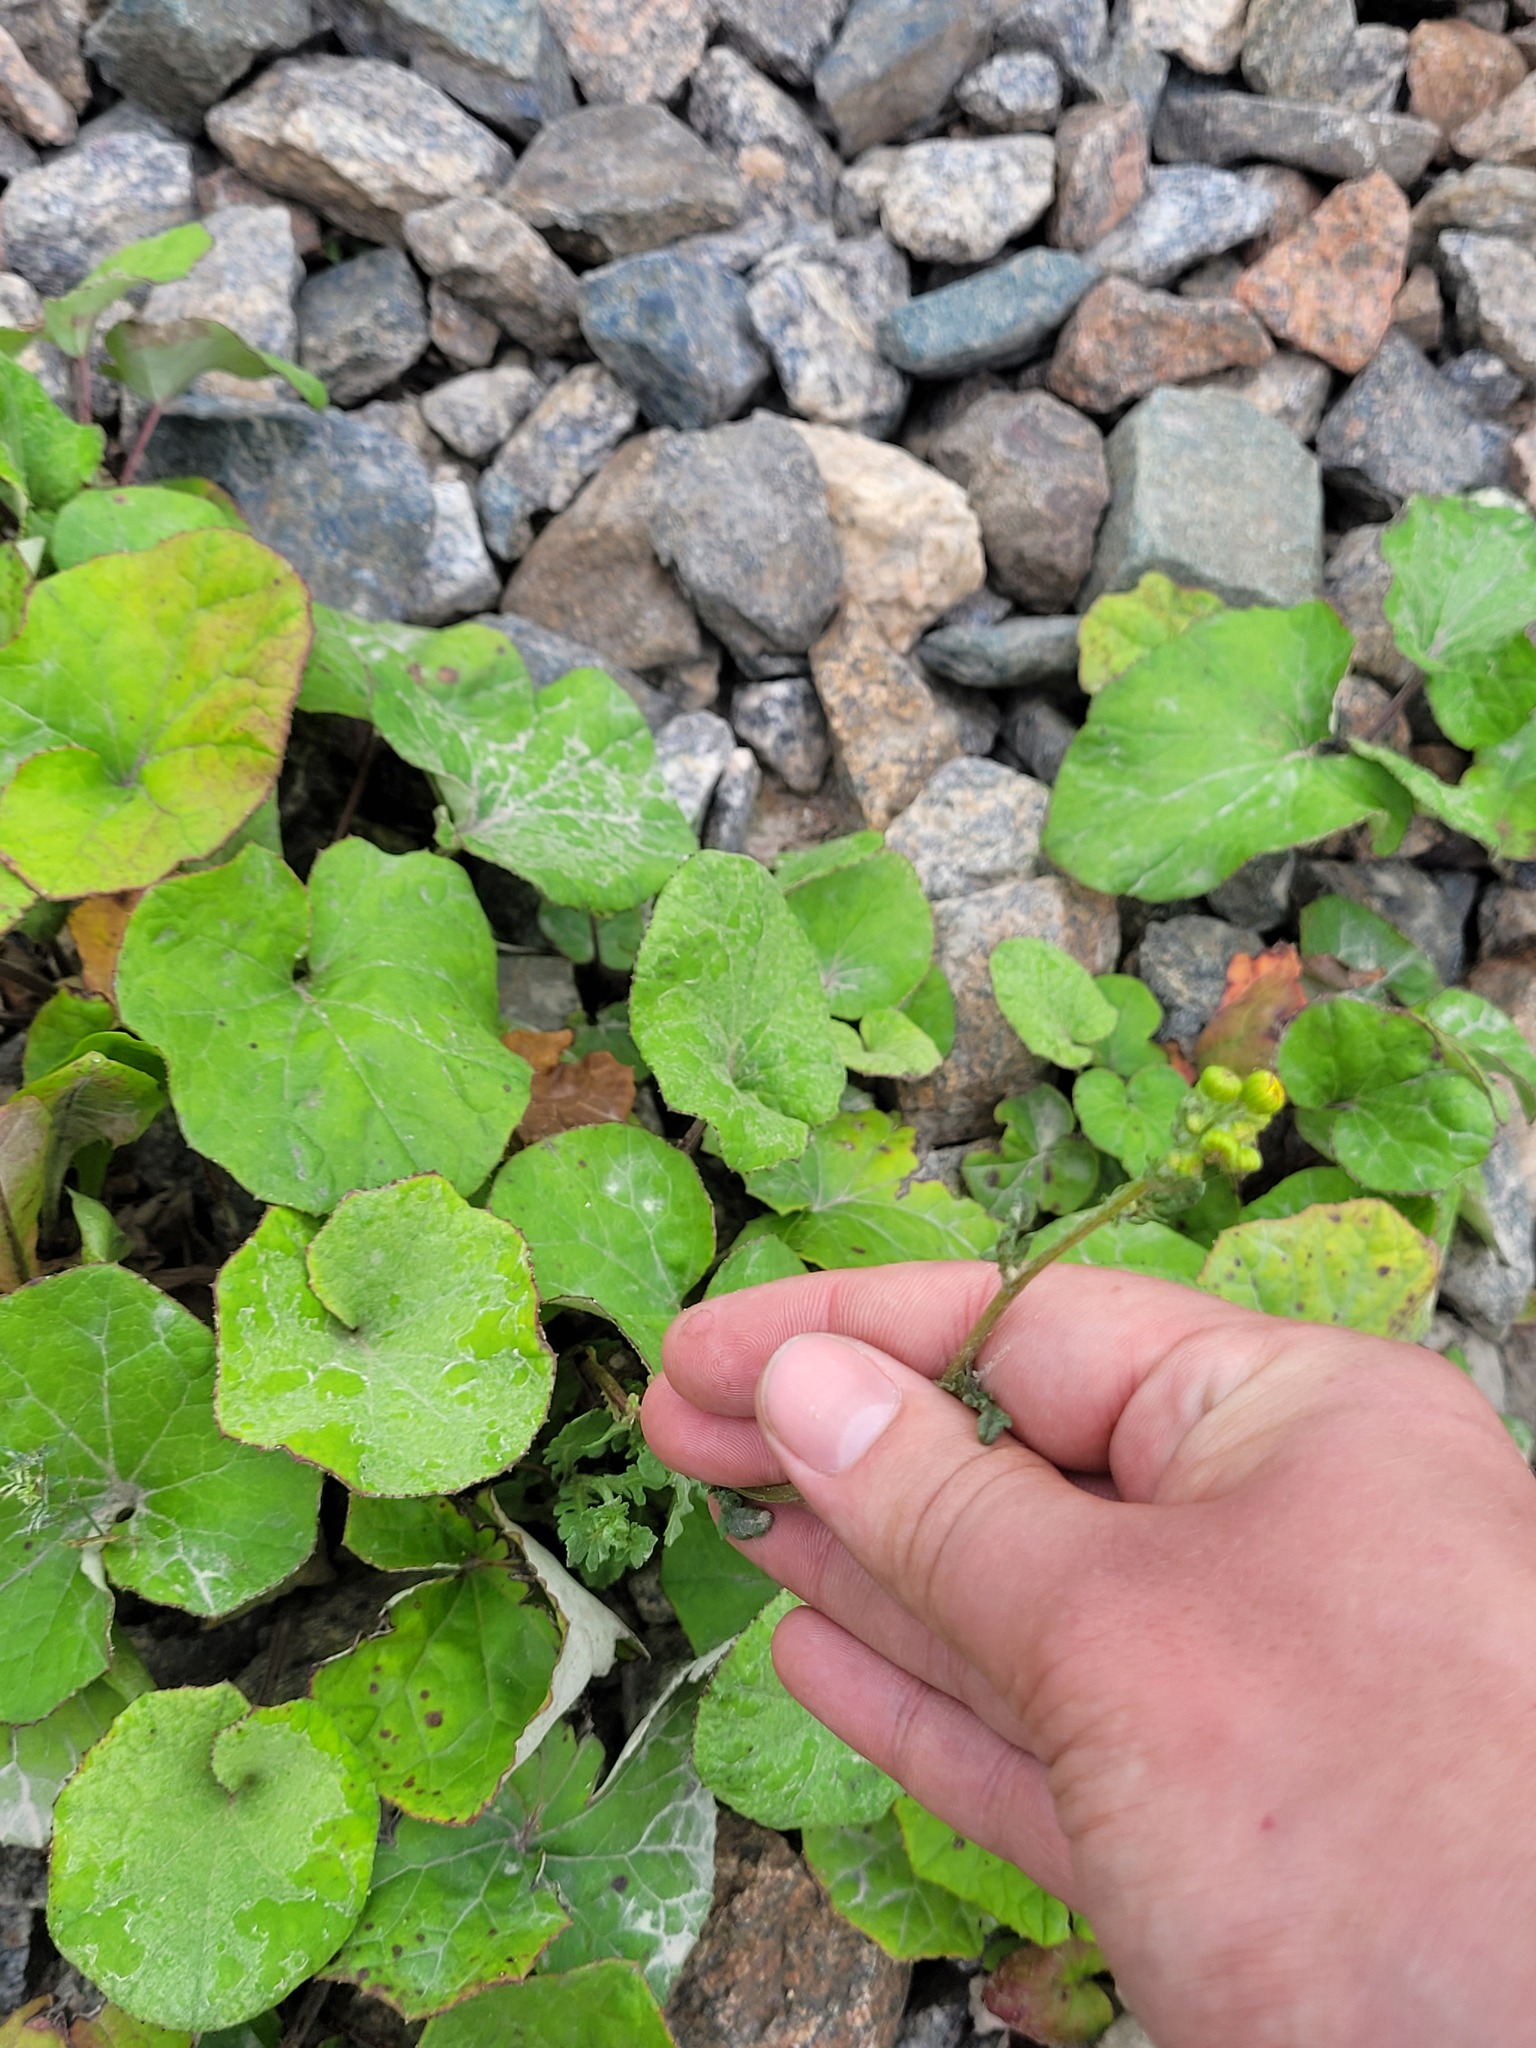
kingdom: Plantae
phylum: Tracheophyta
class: Magnoliopsida
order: Asterales
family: Asteraceae
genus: Jacobaea
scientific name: Jacobaea vulgaris
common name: Stinking willie
